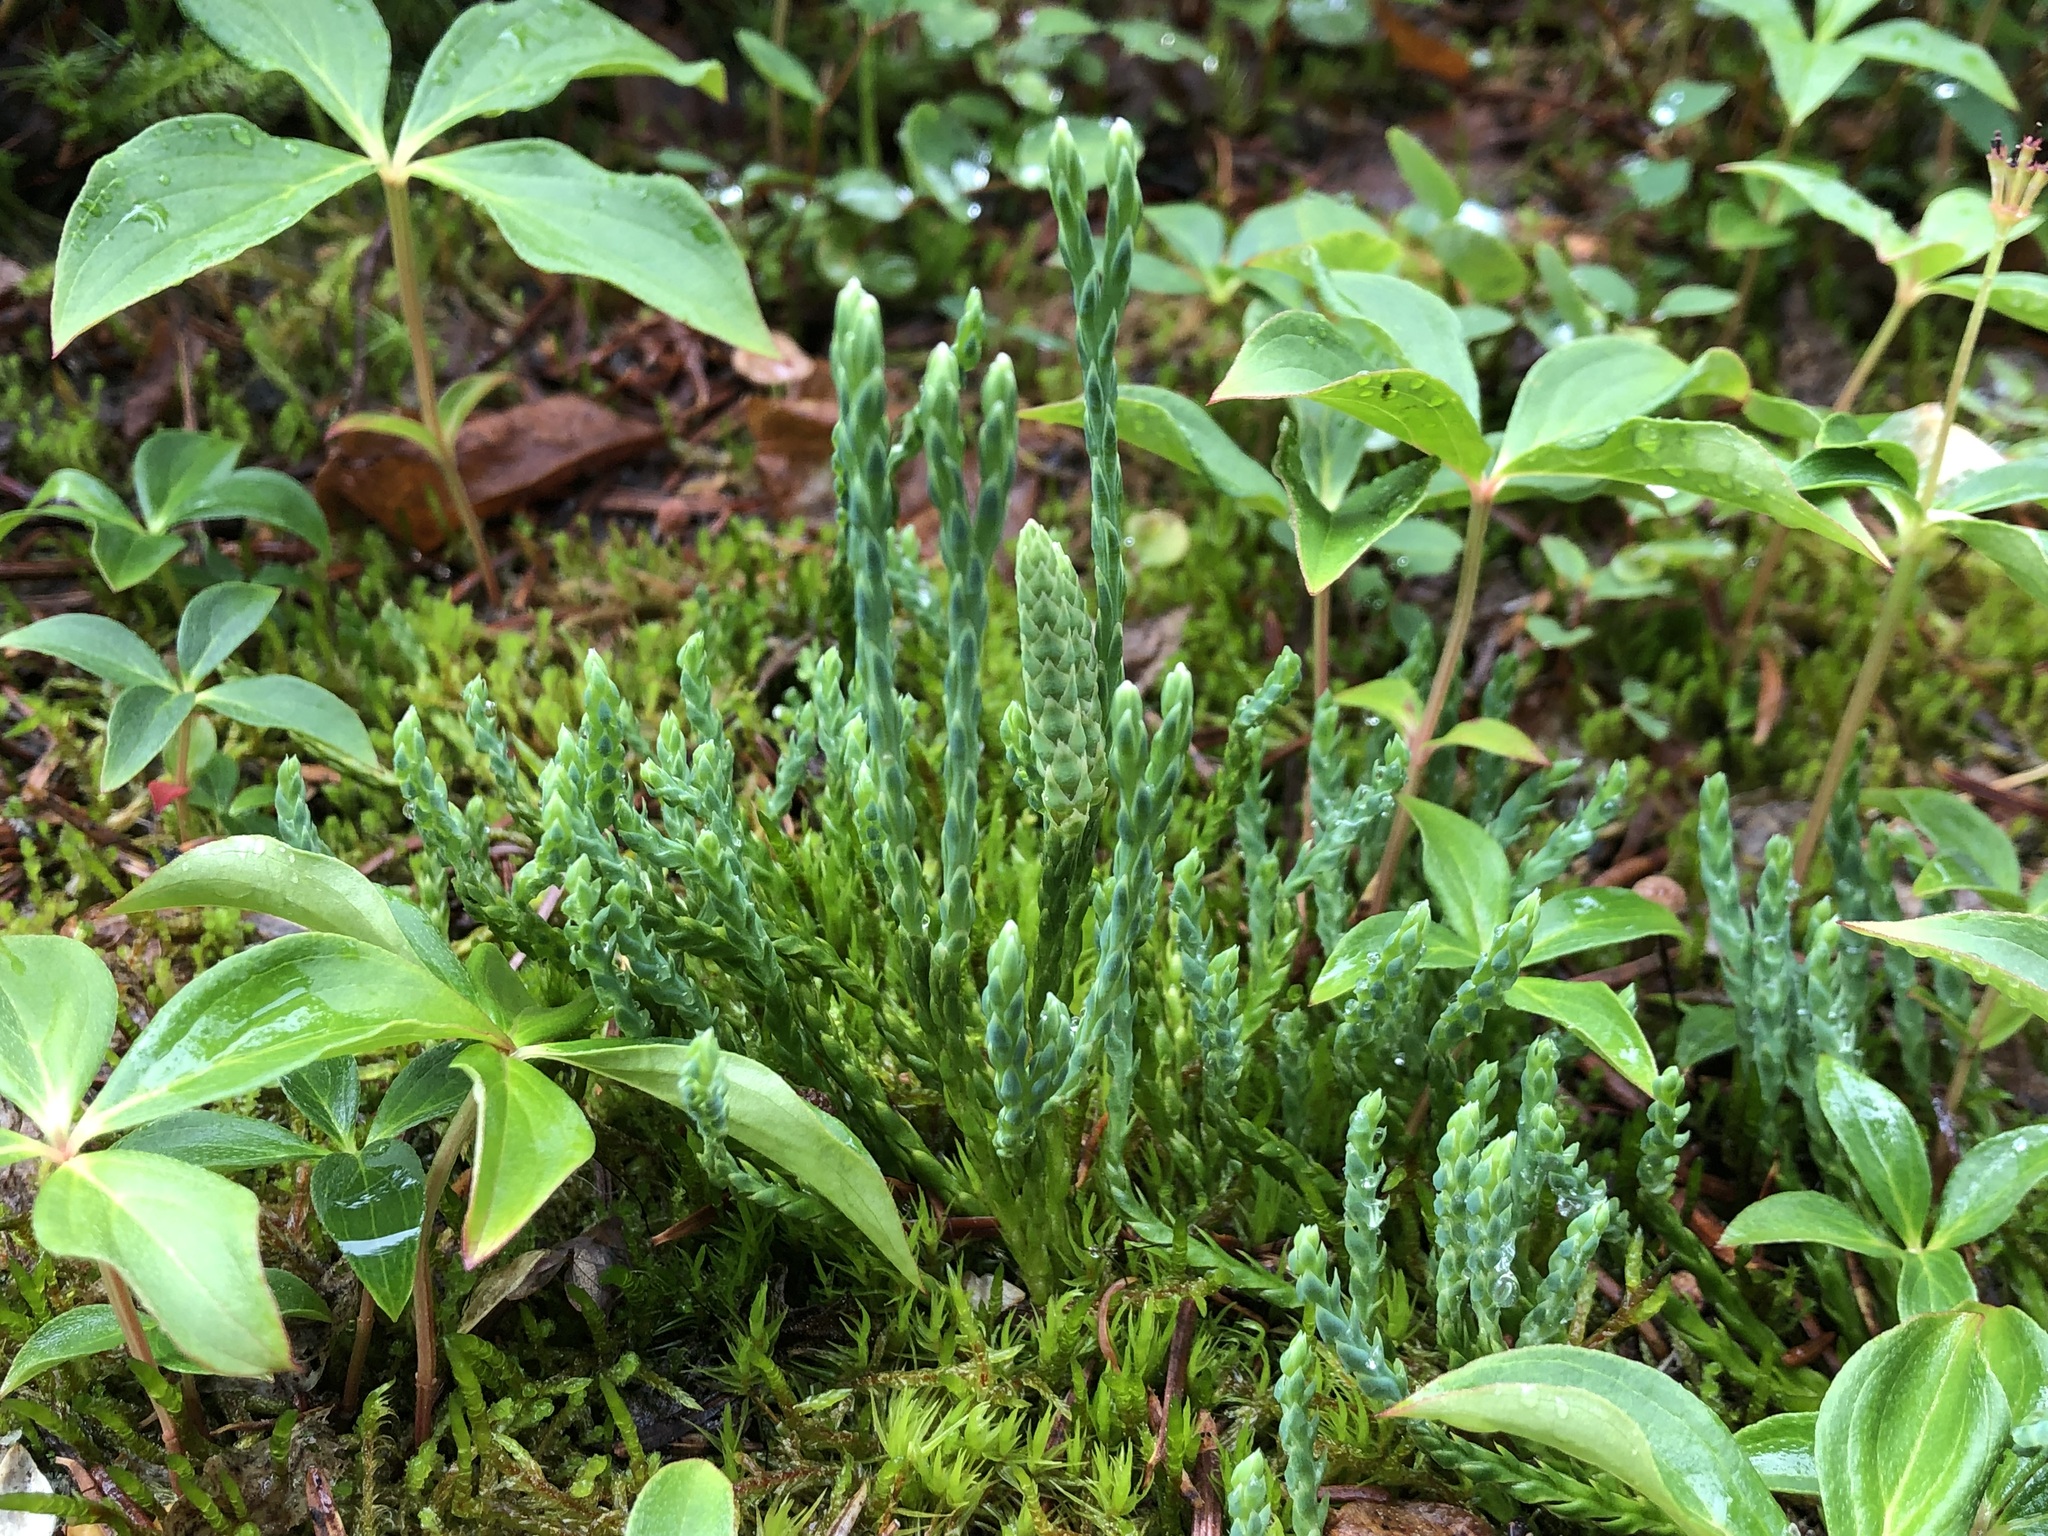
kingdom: Plantae
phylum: Tracheophyta
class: Lycopodiopsida
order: Lycopodiales
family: Lycopodiaceae
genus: Diphasiastrum
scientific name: Diphasiastrum alpinum
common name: Alpine clubmoss
